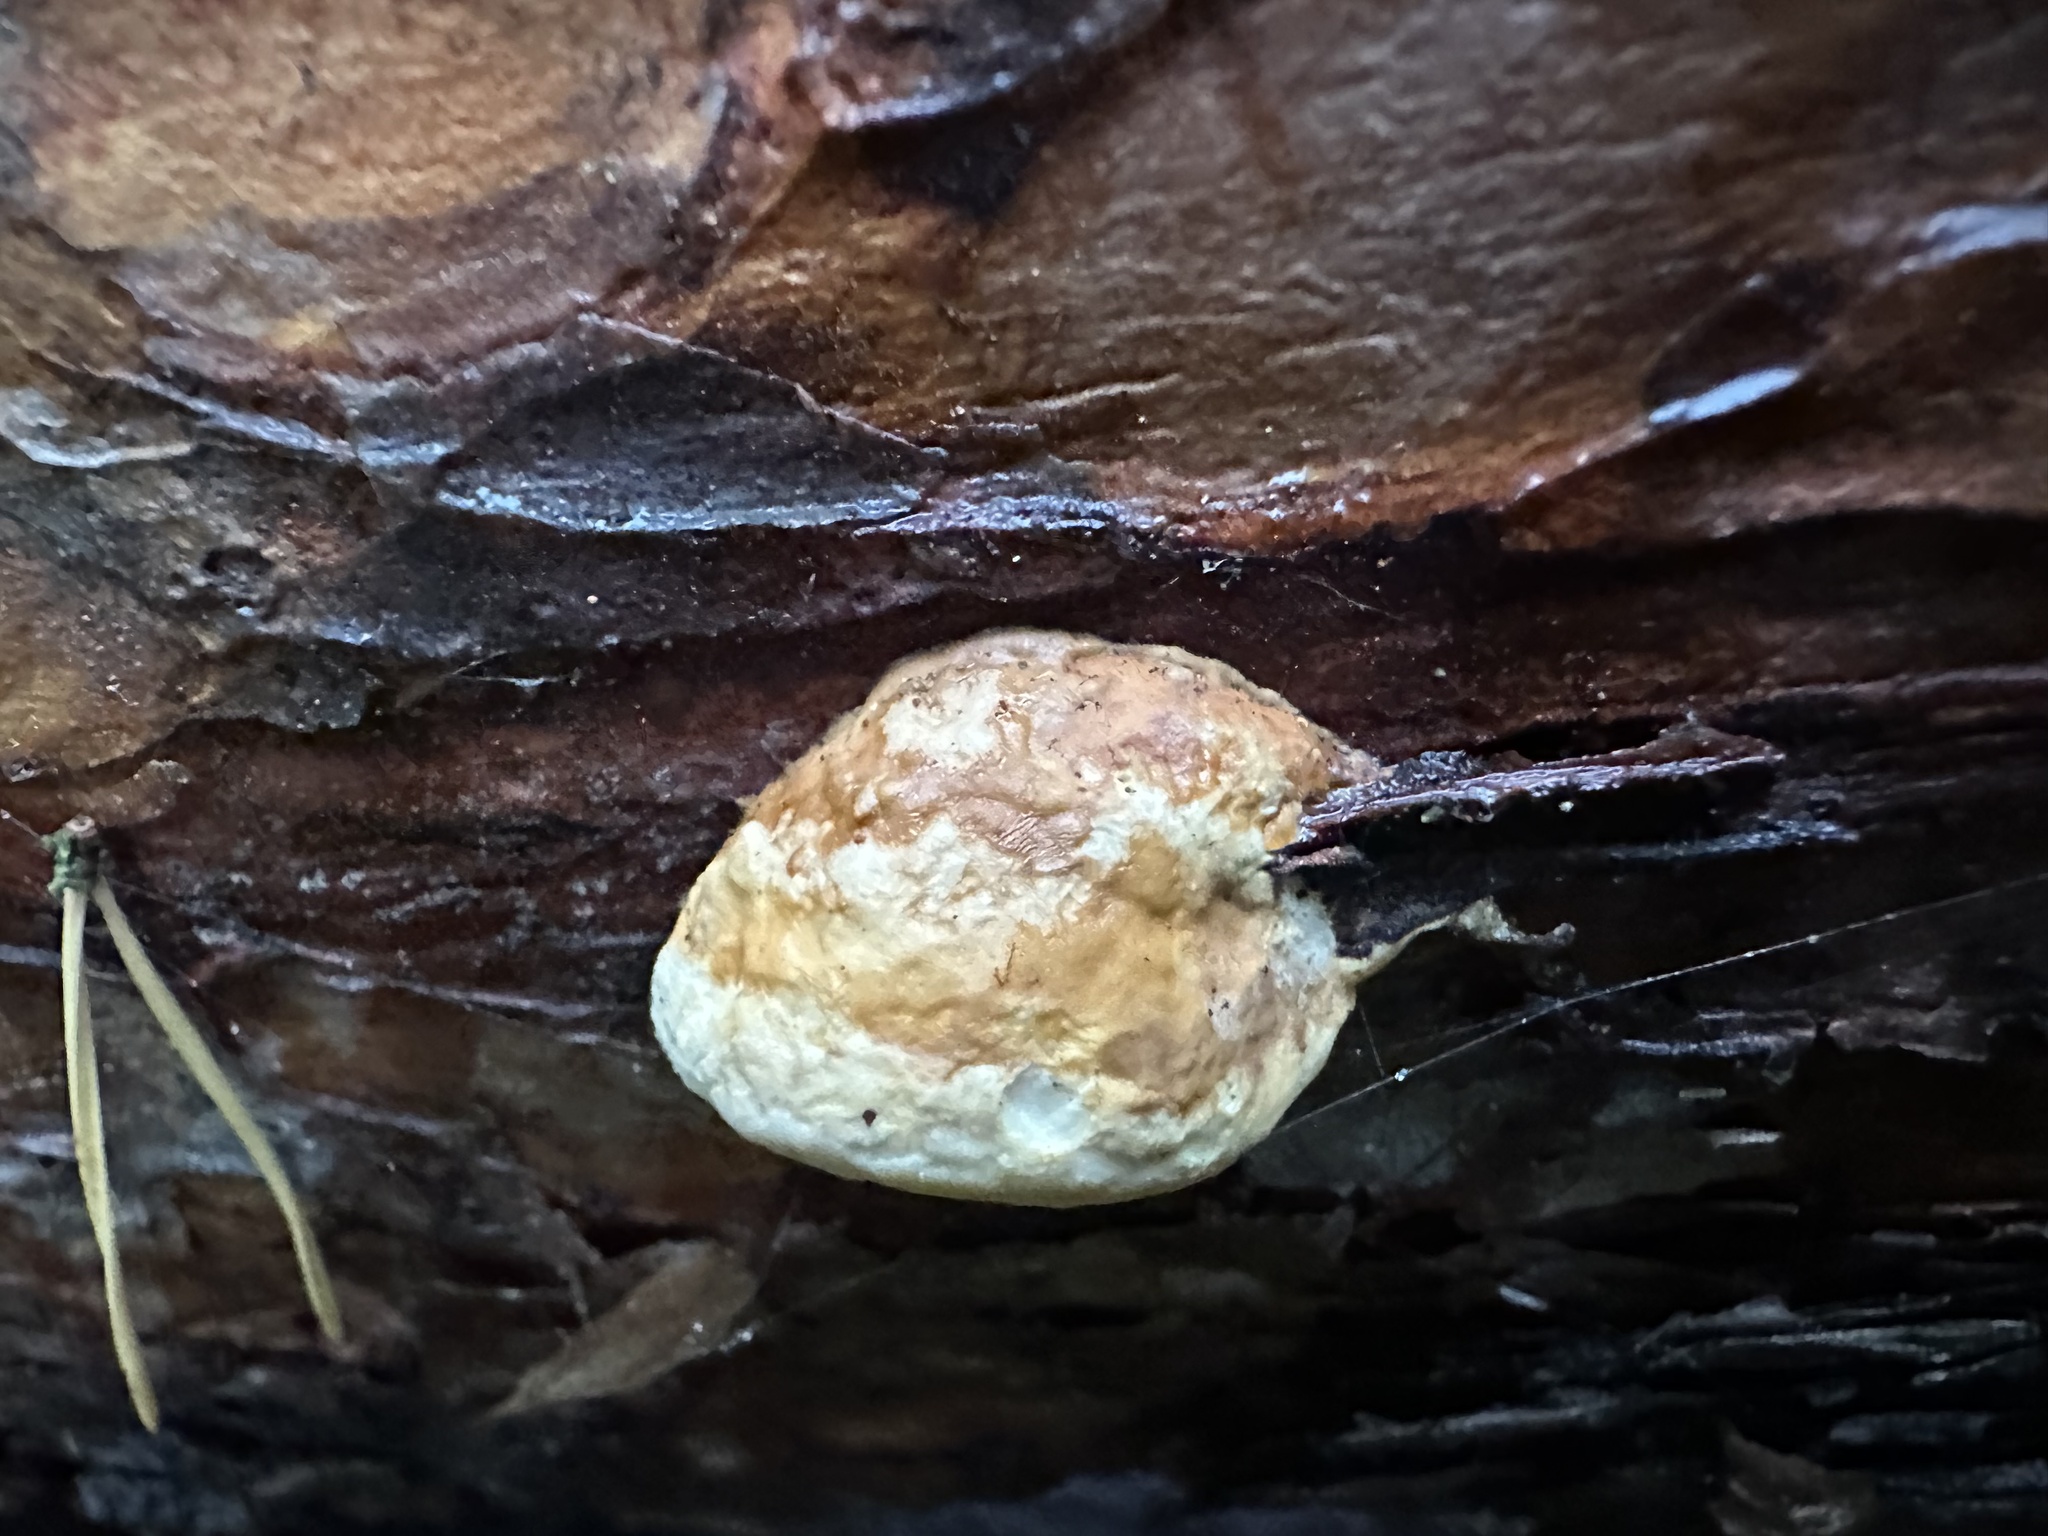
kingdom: Fungi
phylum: Basidiomycota
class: Agaricomycetes
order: Polyporales
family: Fomitopsidaceae
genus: Fomitopsis
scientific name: Fomitopsis pinicola
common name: Red-belted bracket
